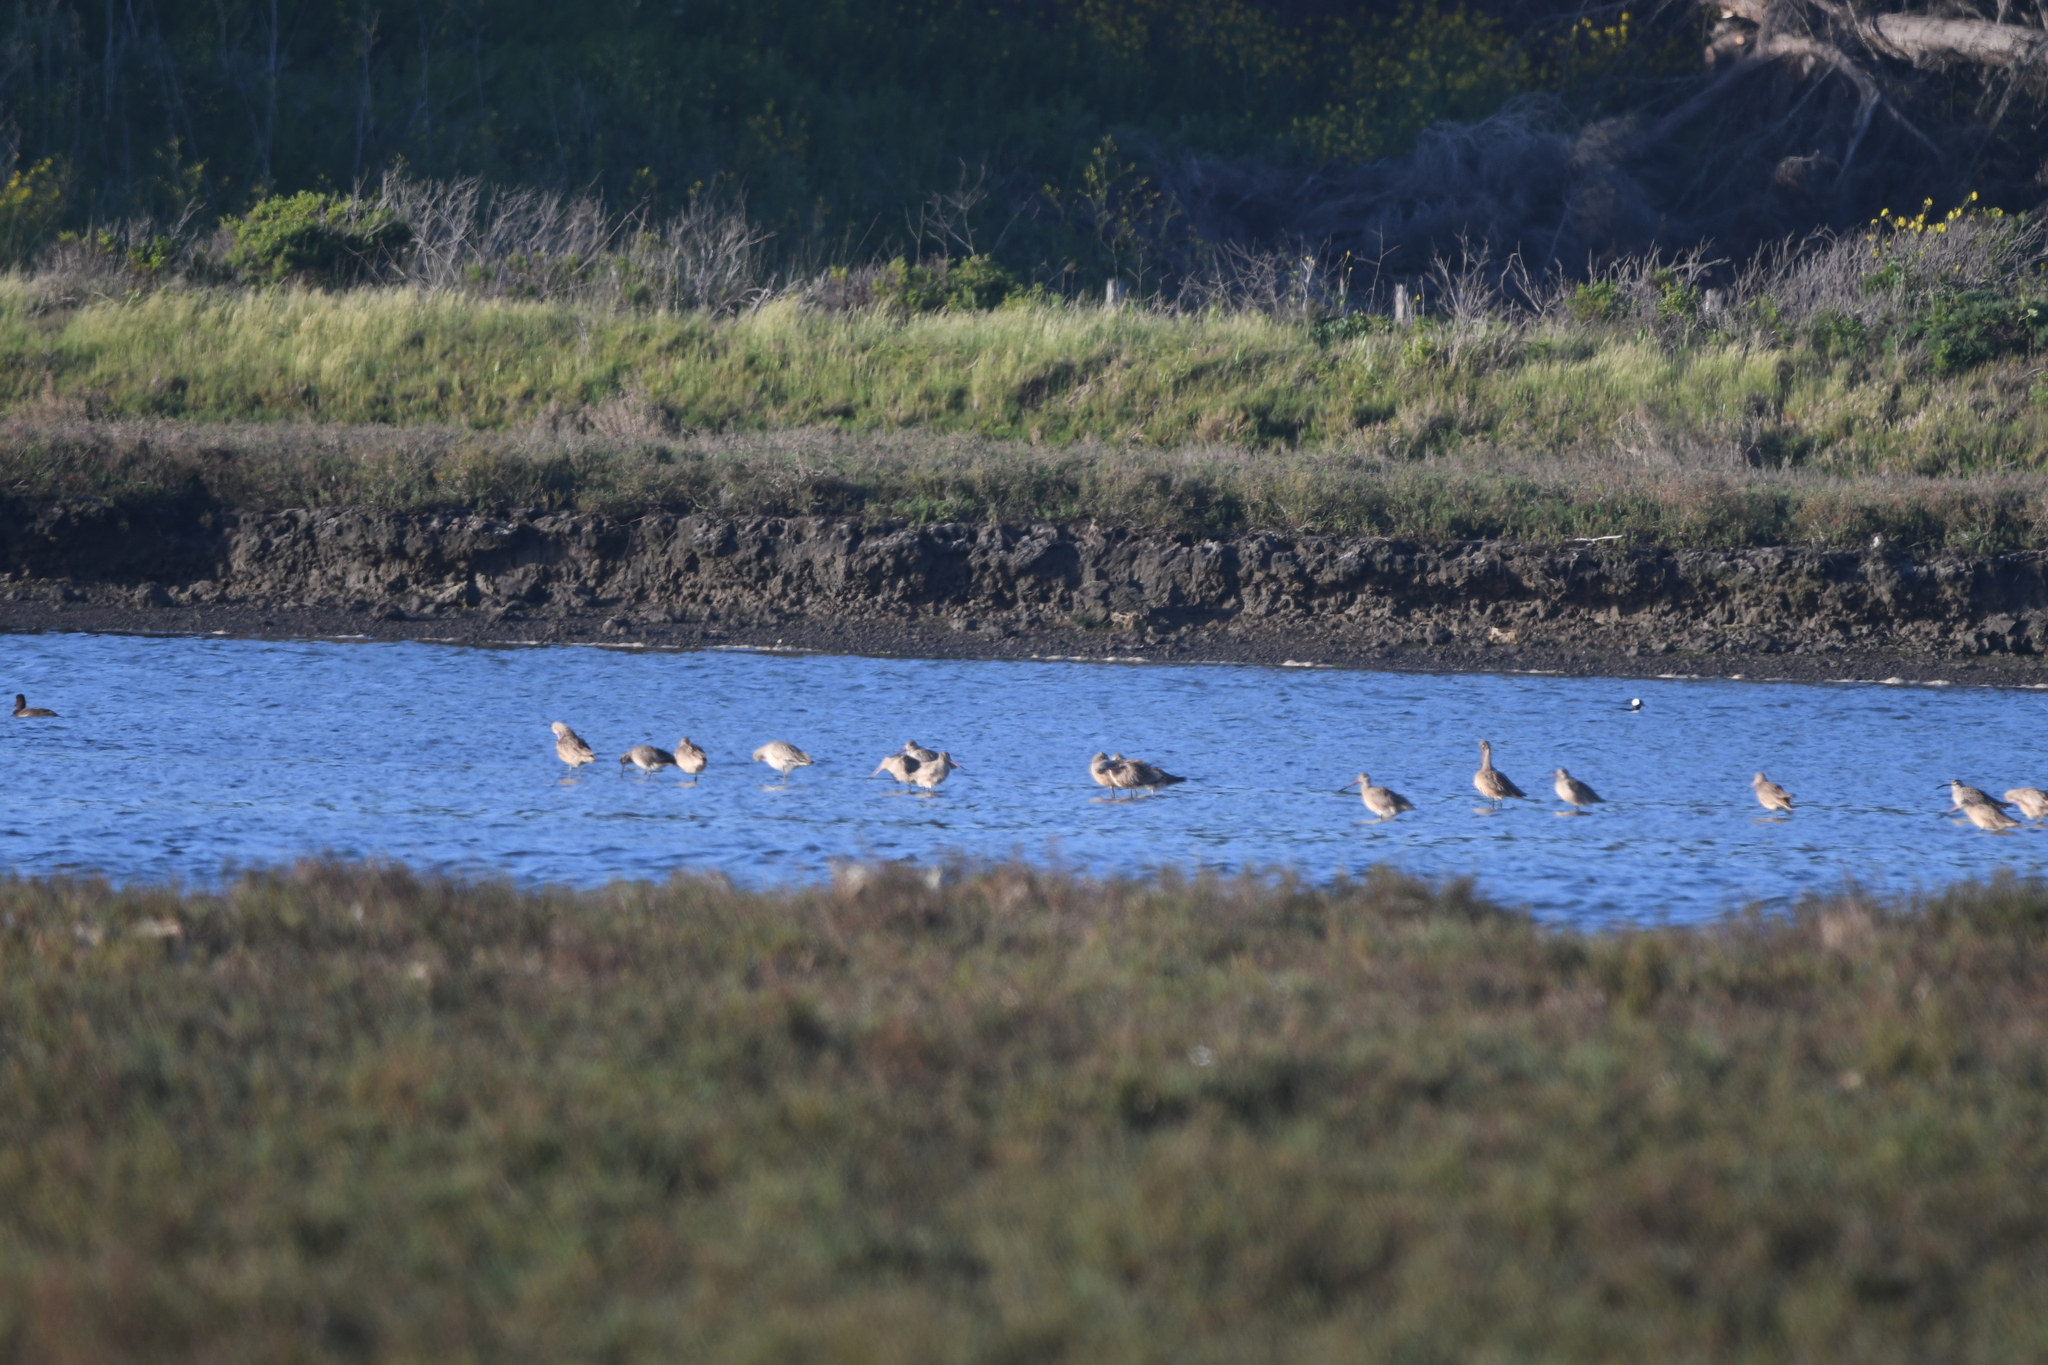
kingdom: Animalia
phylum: Chordata
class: Aves
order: Charadriiformes
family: Scolopacidae
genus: Limosa
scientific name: Limosa fedoa
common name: Marbled godwit
